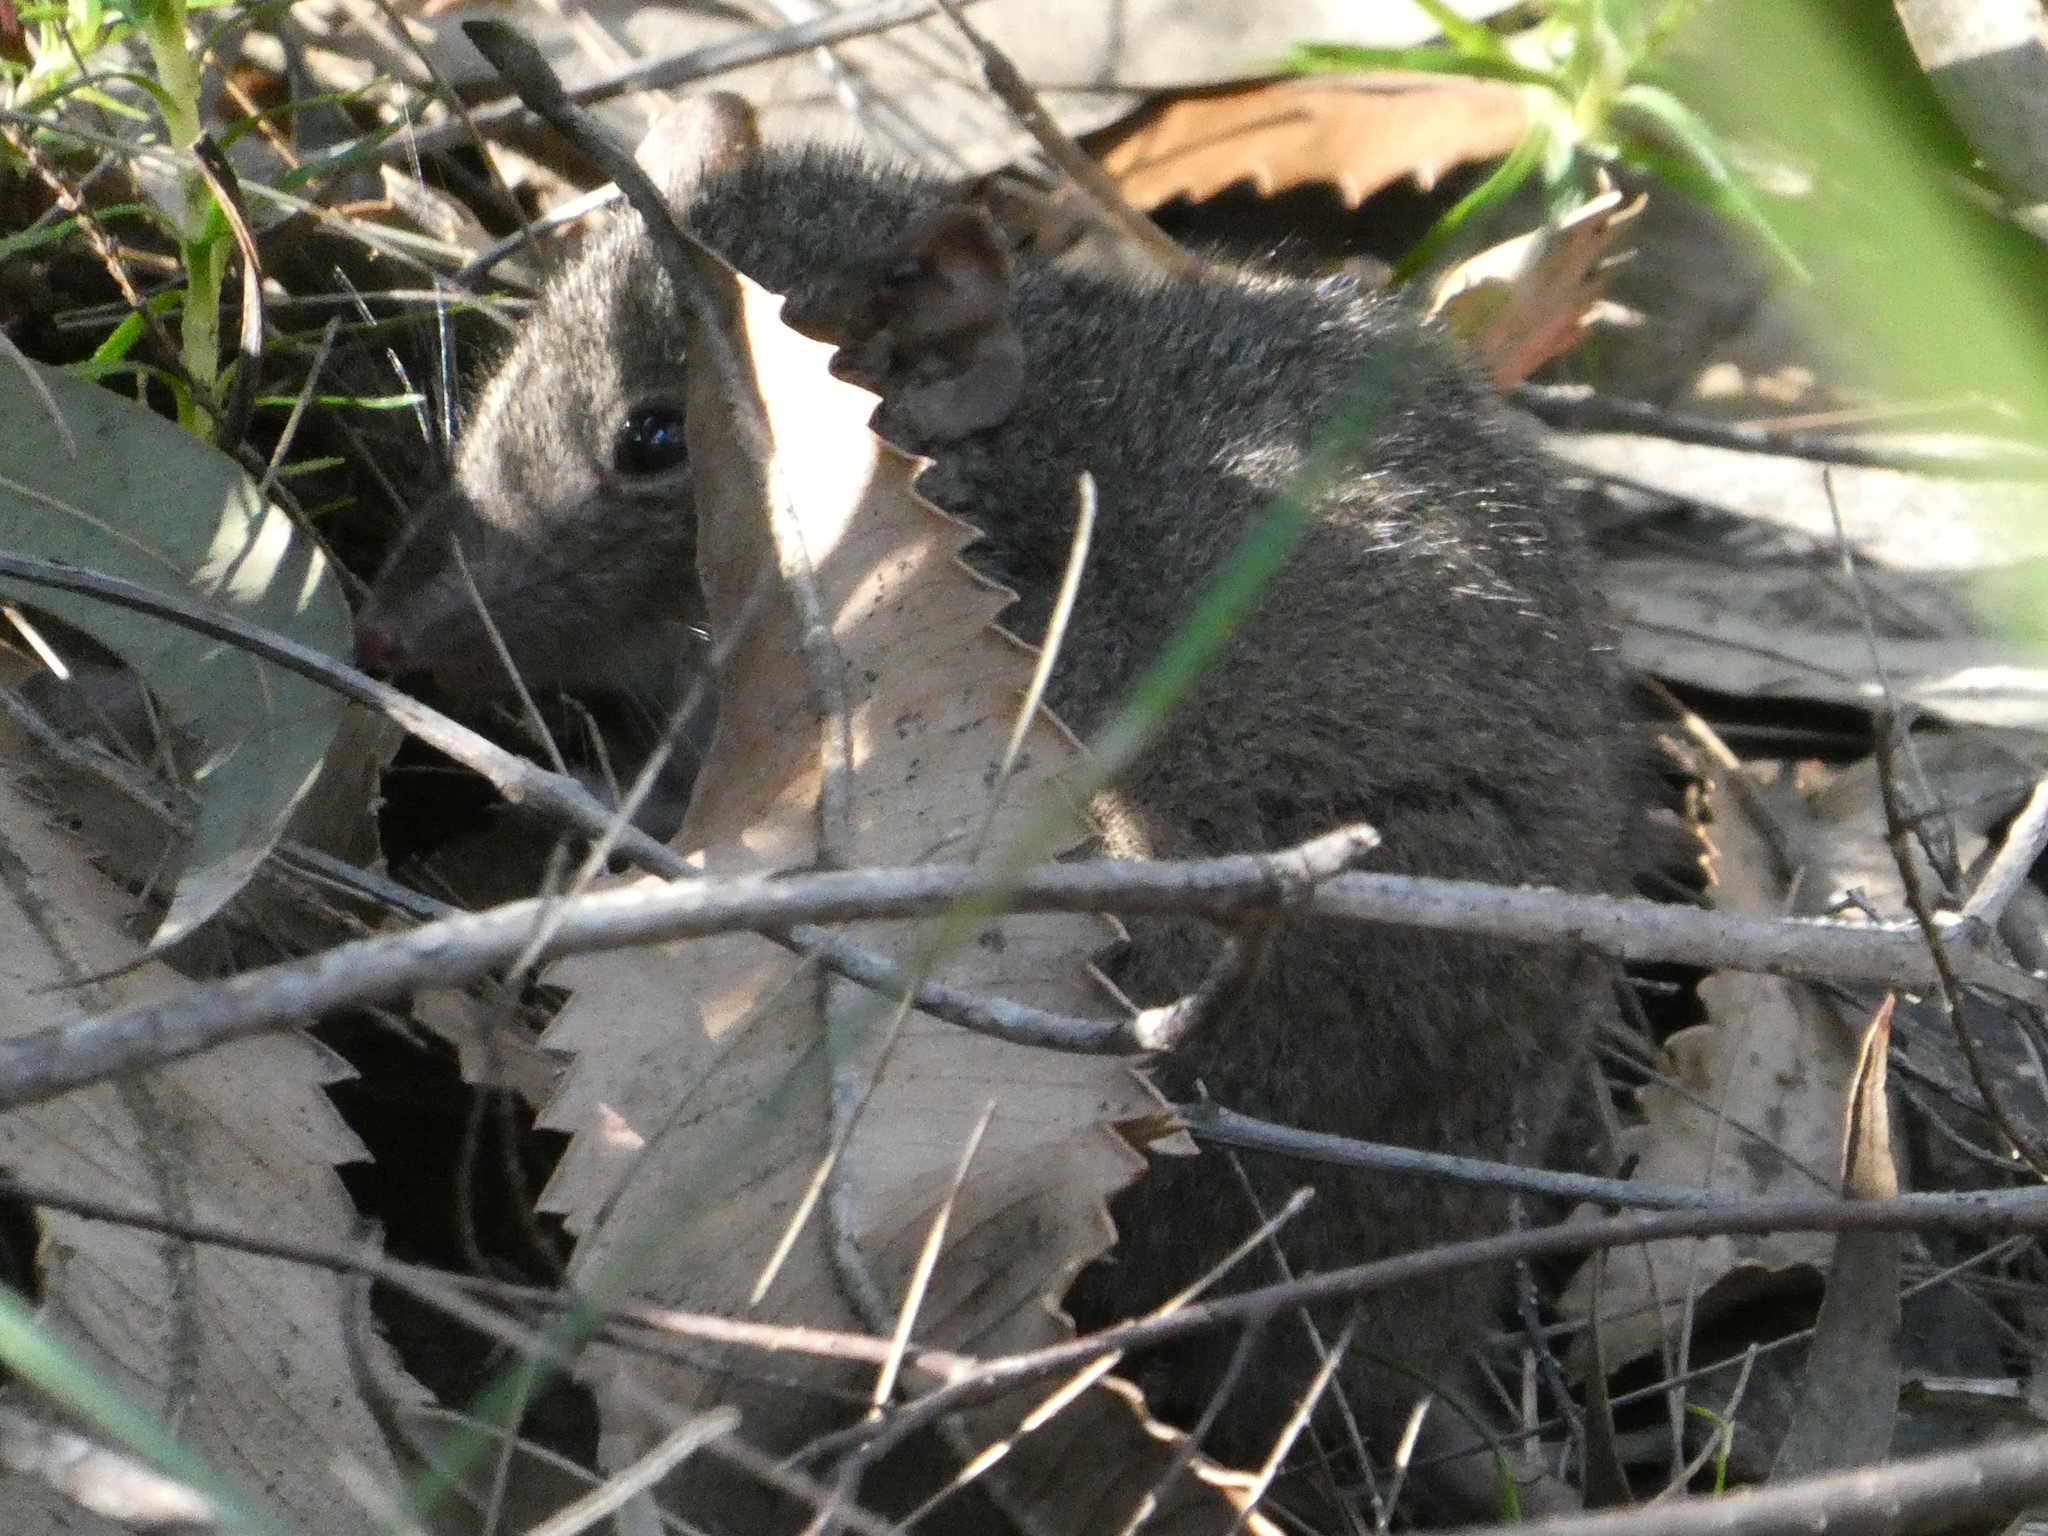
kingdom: Animalia
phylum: Chordata
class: Mammalia
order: Dasyuromorphia
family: Dasyuridae
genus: Antechinus
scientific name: Antechinus stuartii
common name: Brown antechinus
